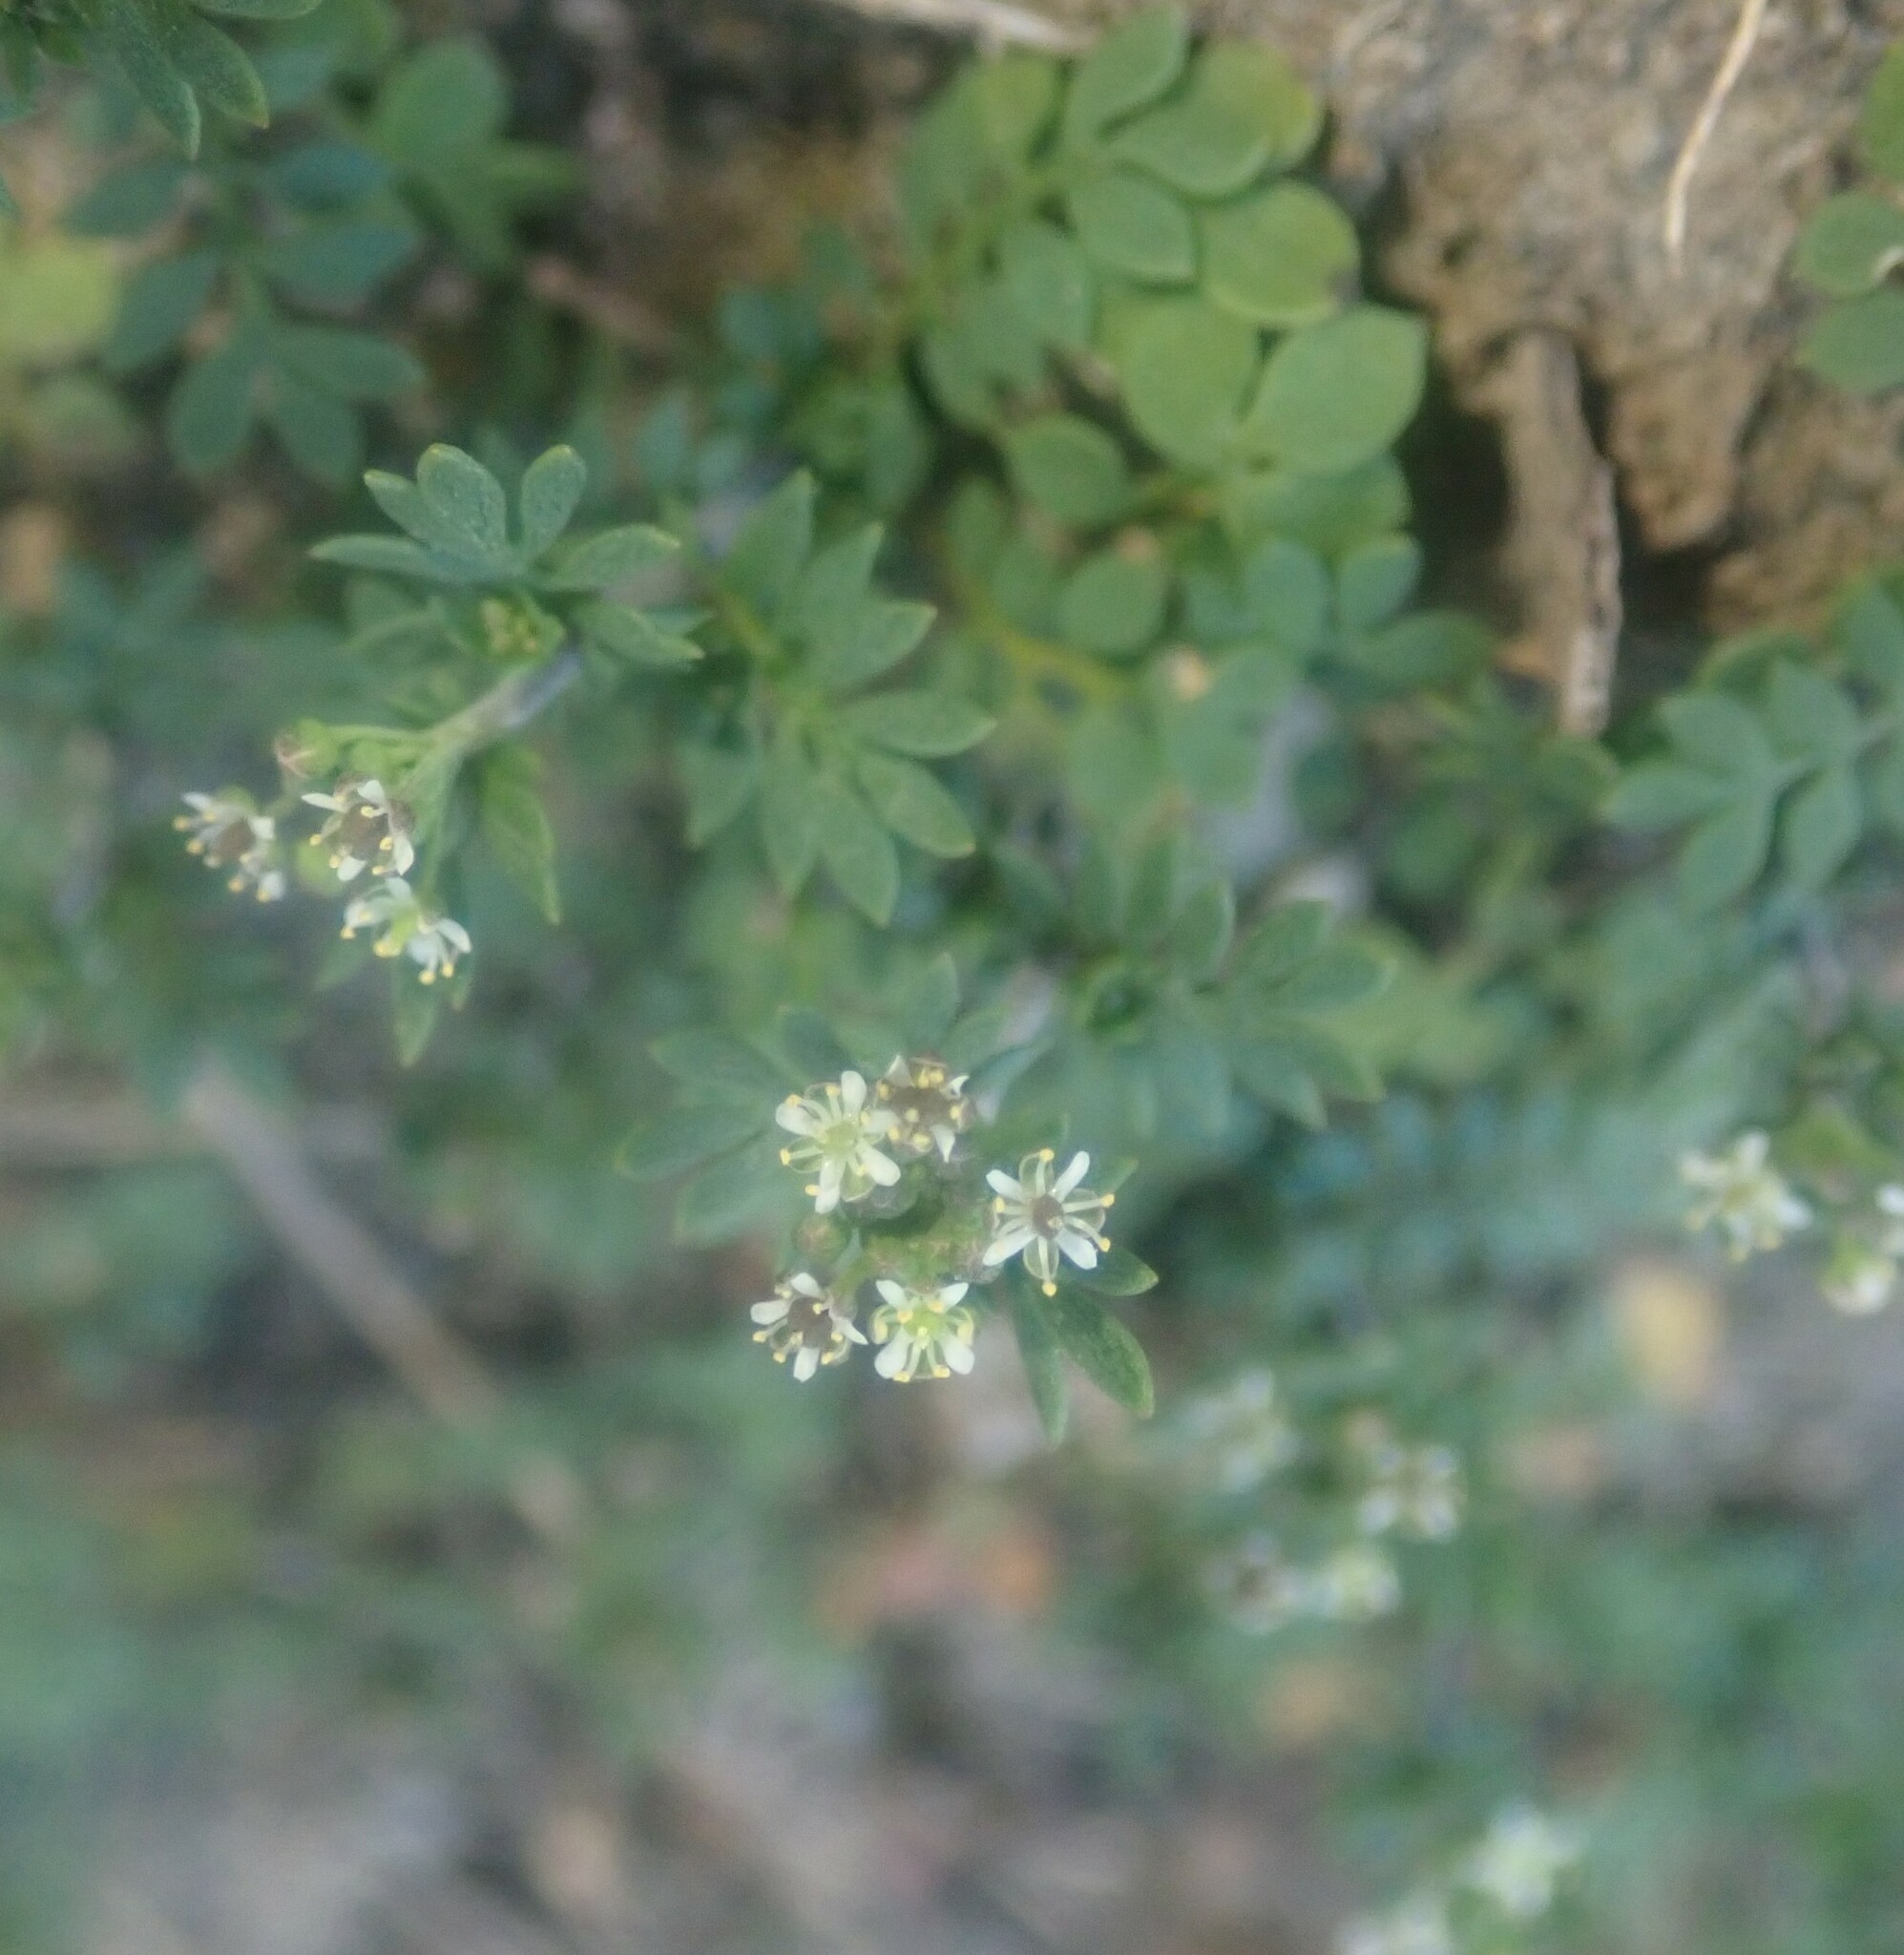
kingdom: Plantae
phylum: Tracheophyta
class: Magnoliopsida
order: Brassicales
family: Brassicaceae
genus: Hornungia
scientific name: Hornungia petraea
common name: Hutchinsia
